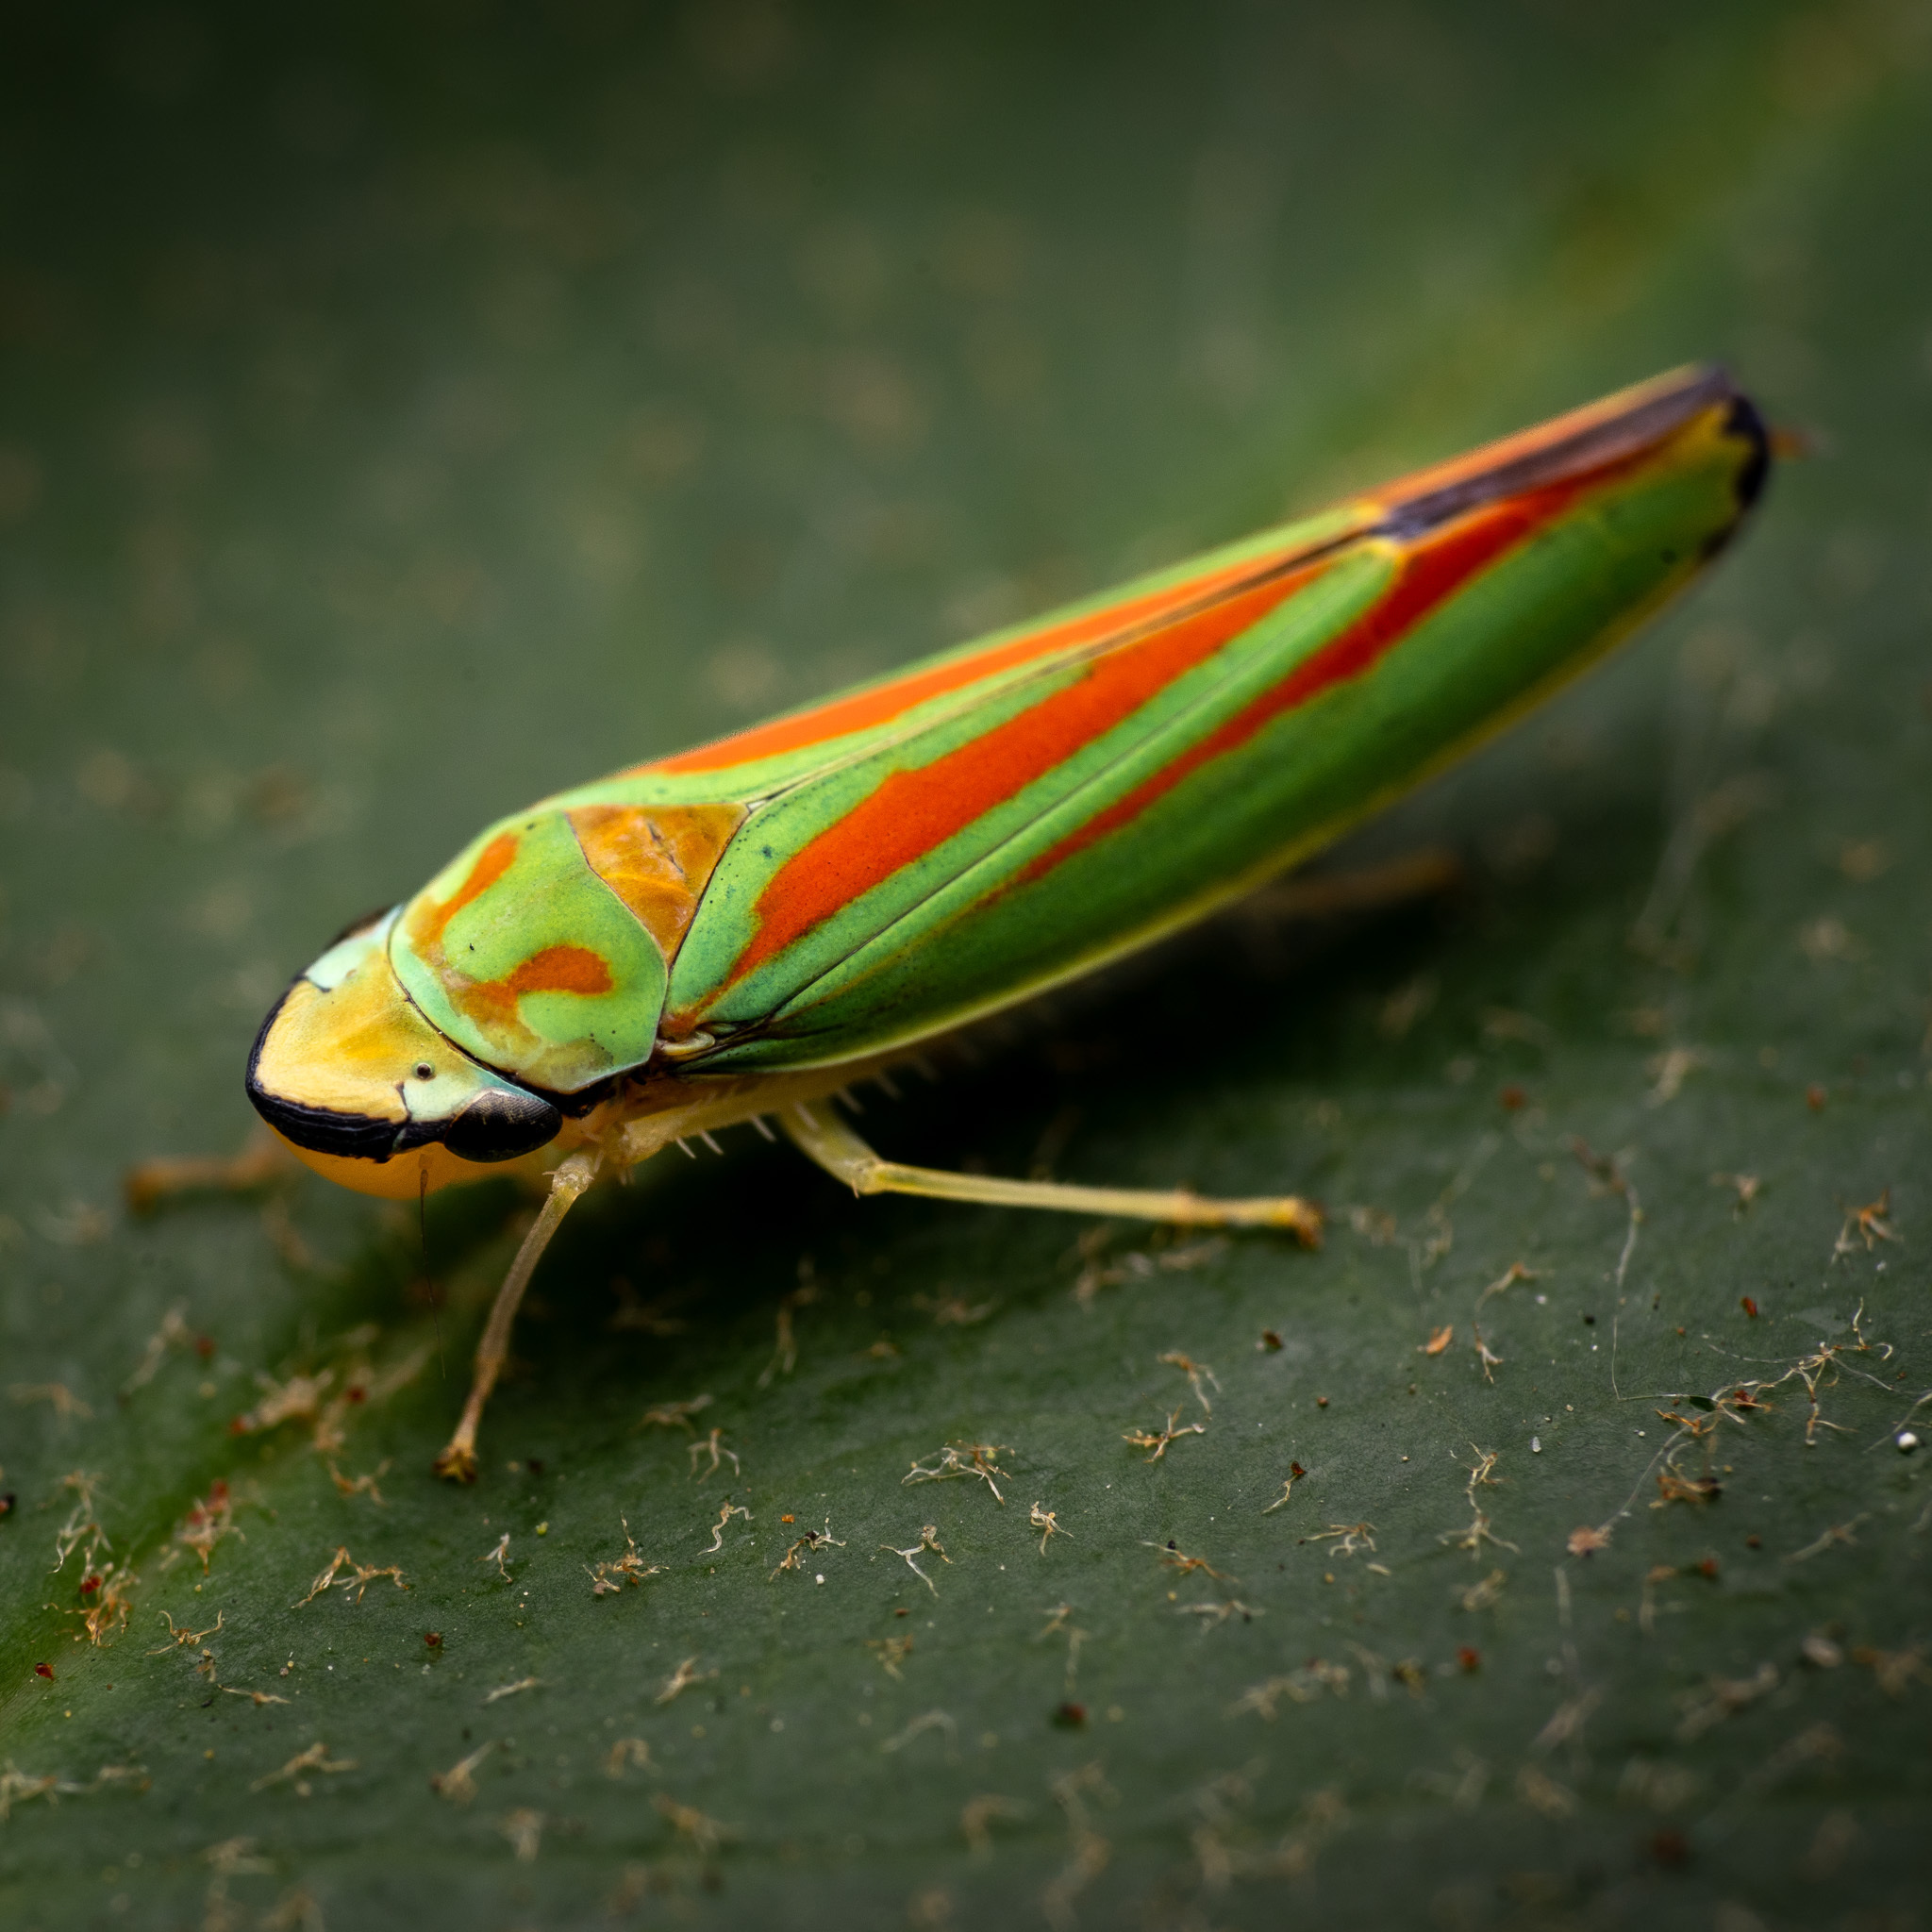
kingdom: Animalia
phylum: Arthropoda
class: Insecta
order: Hemiptera
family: Cicadellidae
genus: Graphocephala
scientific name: Graphocephala fennahi
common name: Rhododendron leafhopper
